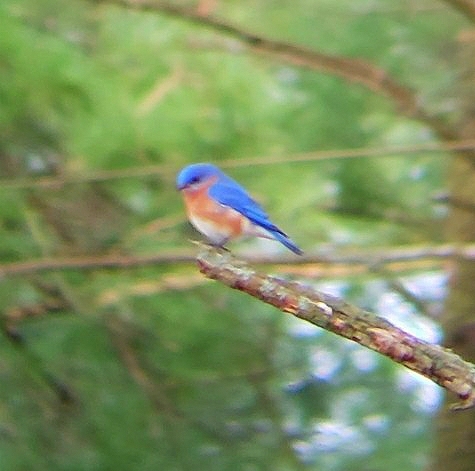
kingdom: Animalia
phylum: Chordata
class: Aves
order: Passeriformes
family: Turdidae
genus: Sialia
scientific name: Sialia sialis
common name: Eastern bluebird
